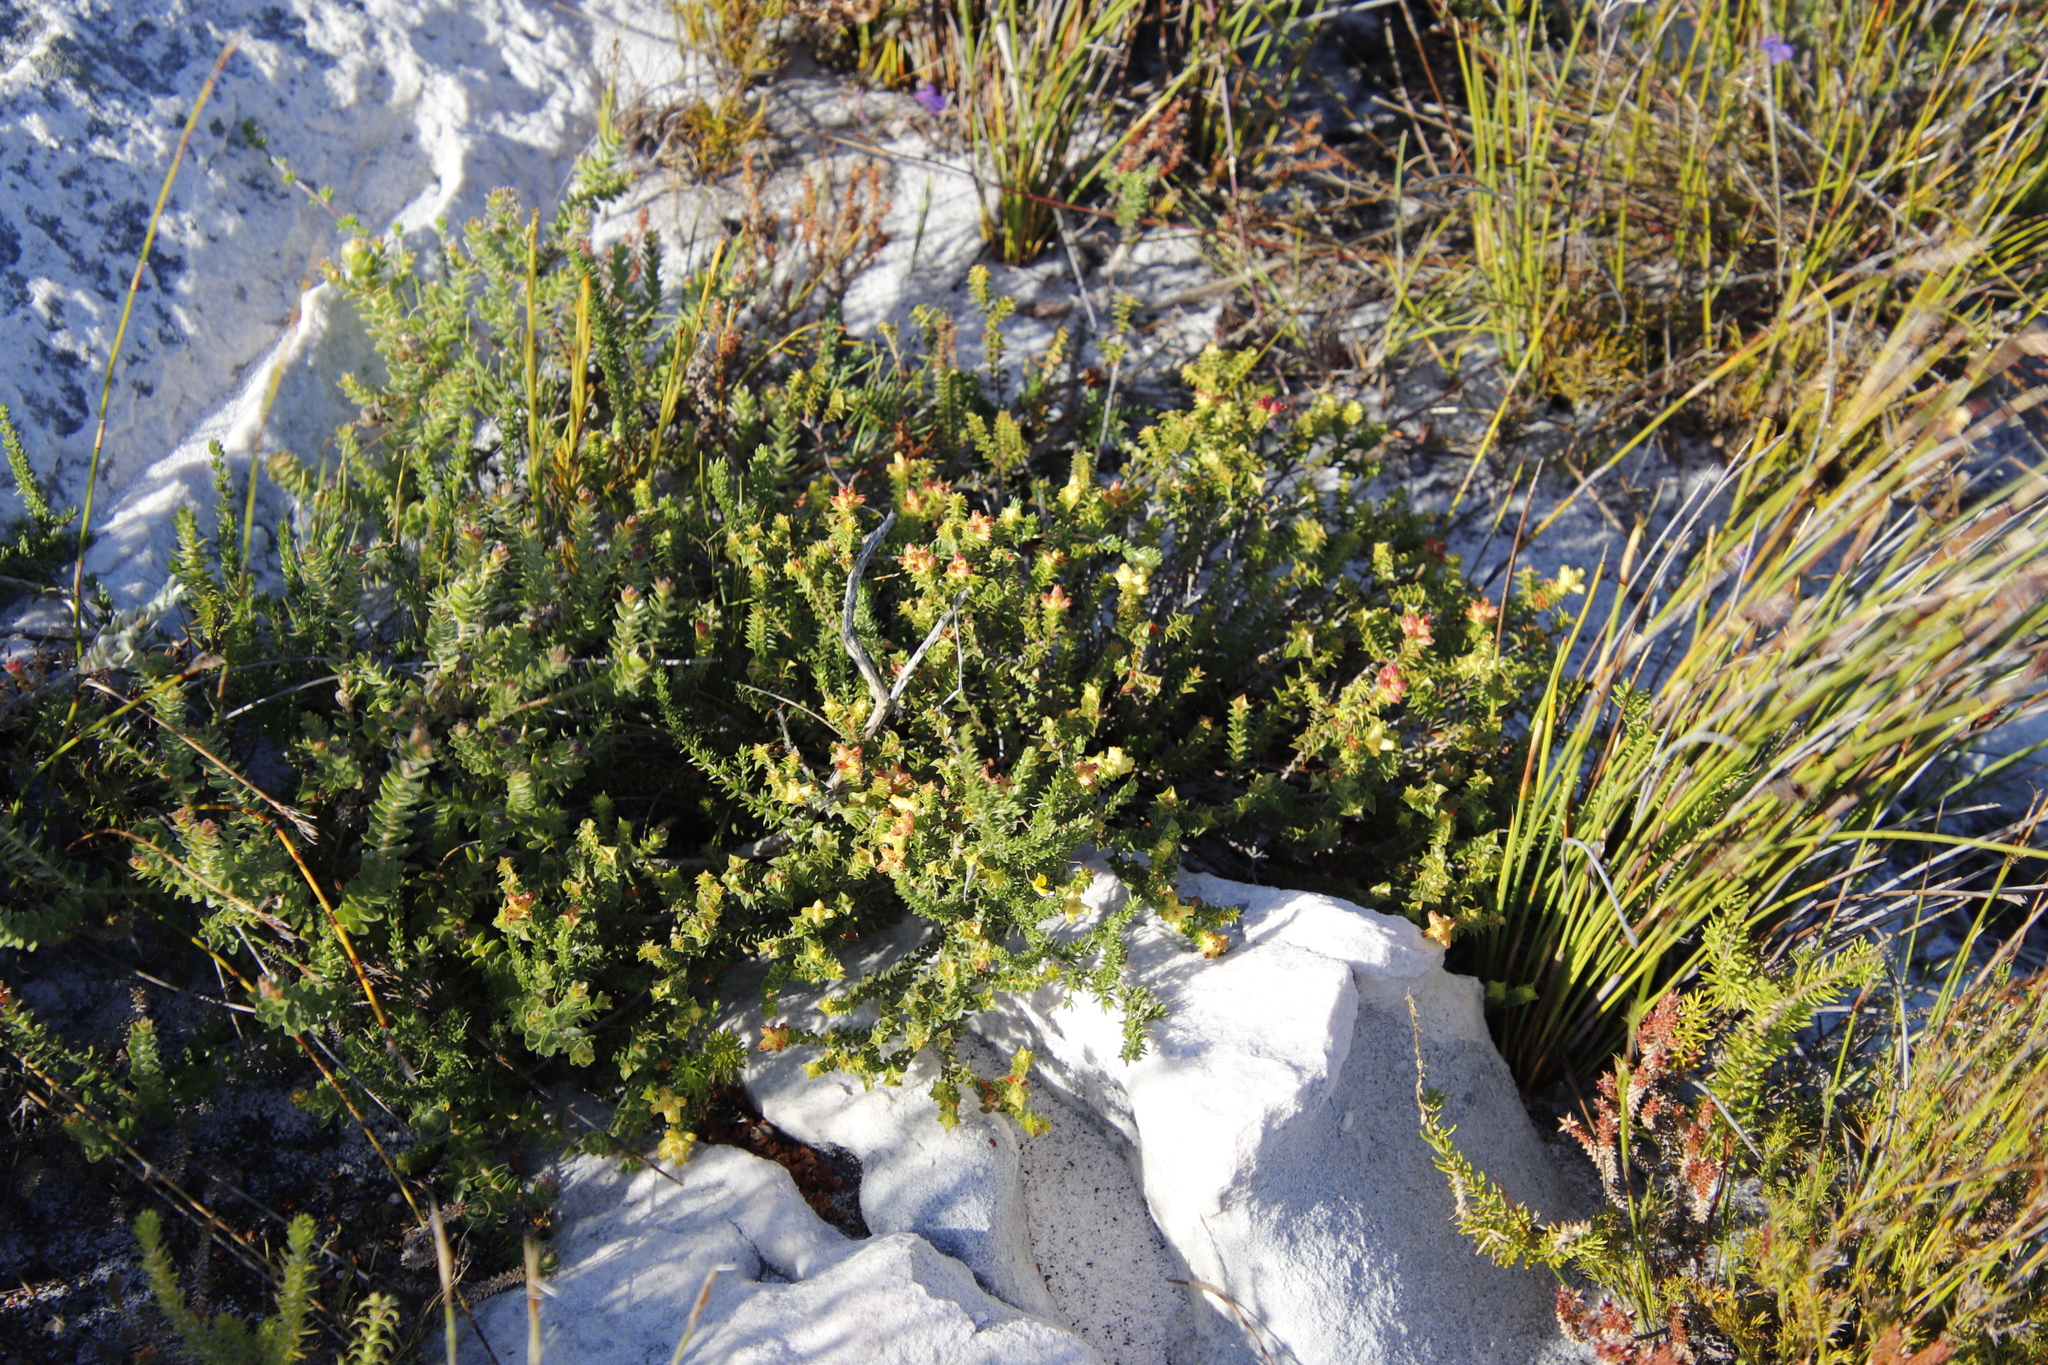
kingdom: Plantae
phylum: Tracheophyta
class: Magnoliopsida
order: Myrtales
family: Penaeaceae
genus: Penaea
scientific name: Penaea mucronata
